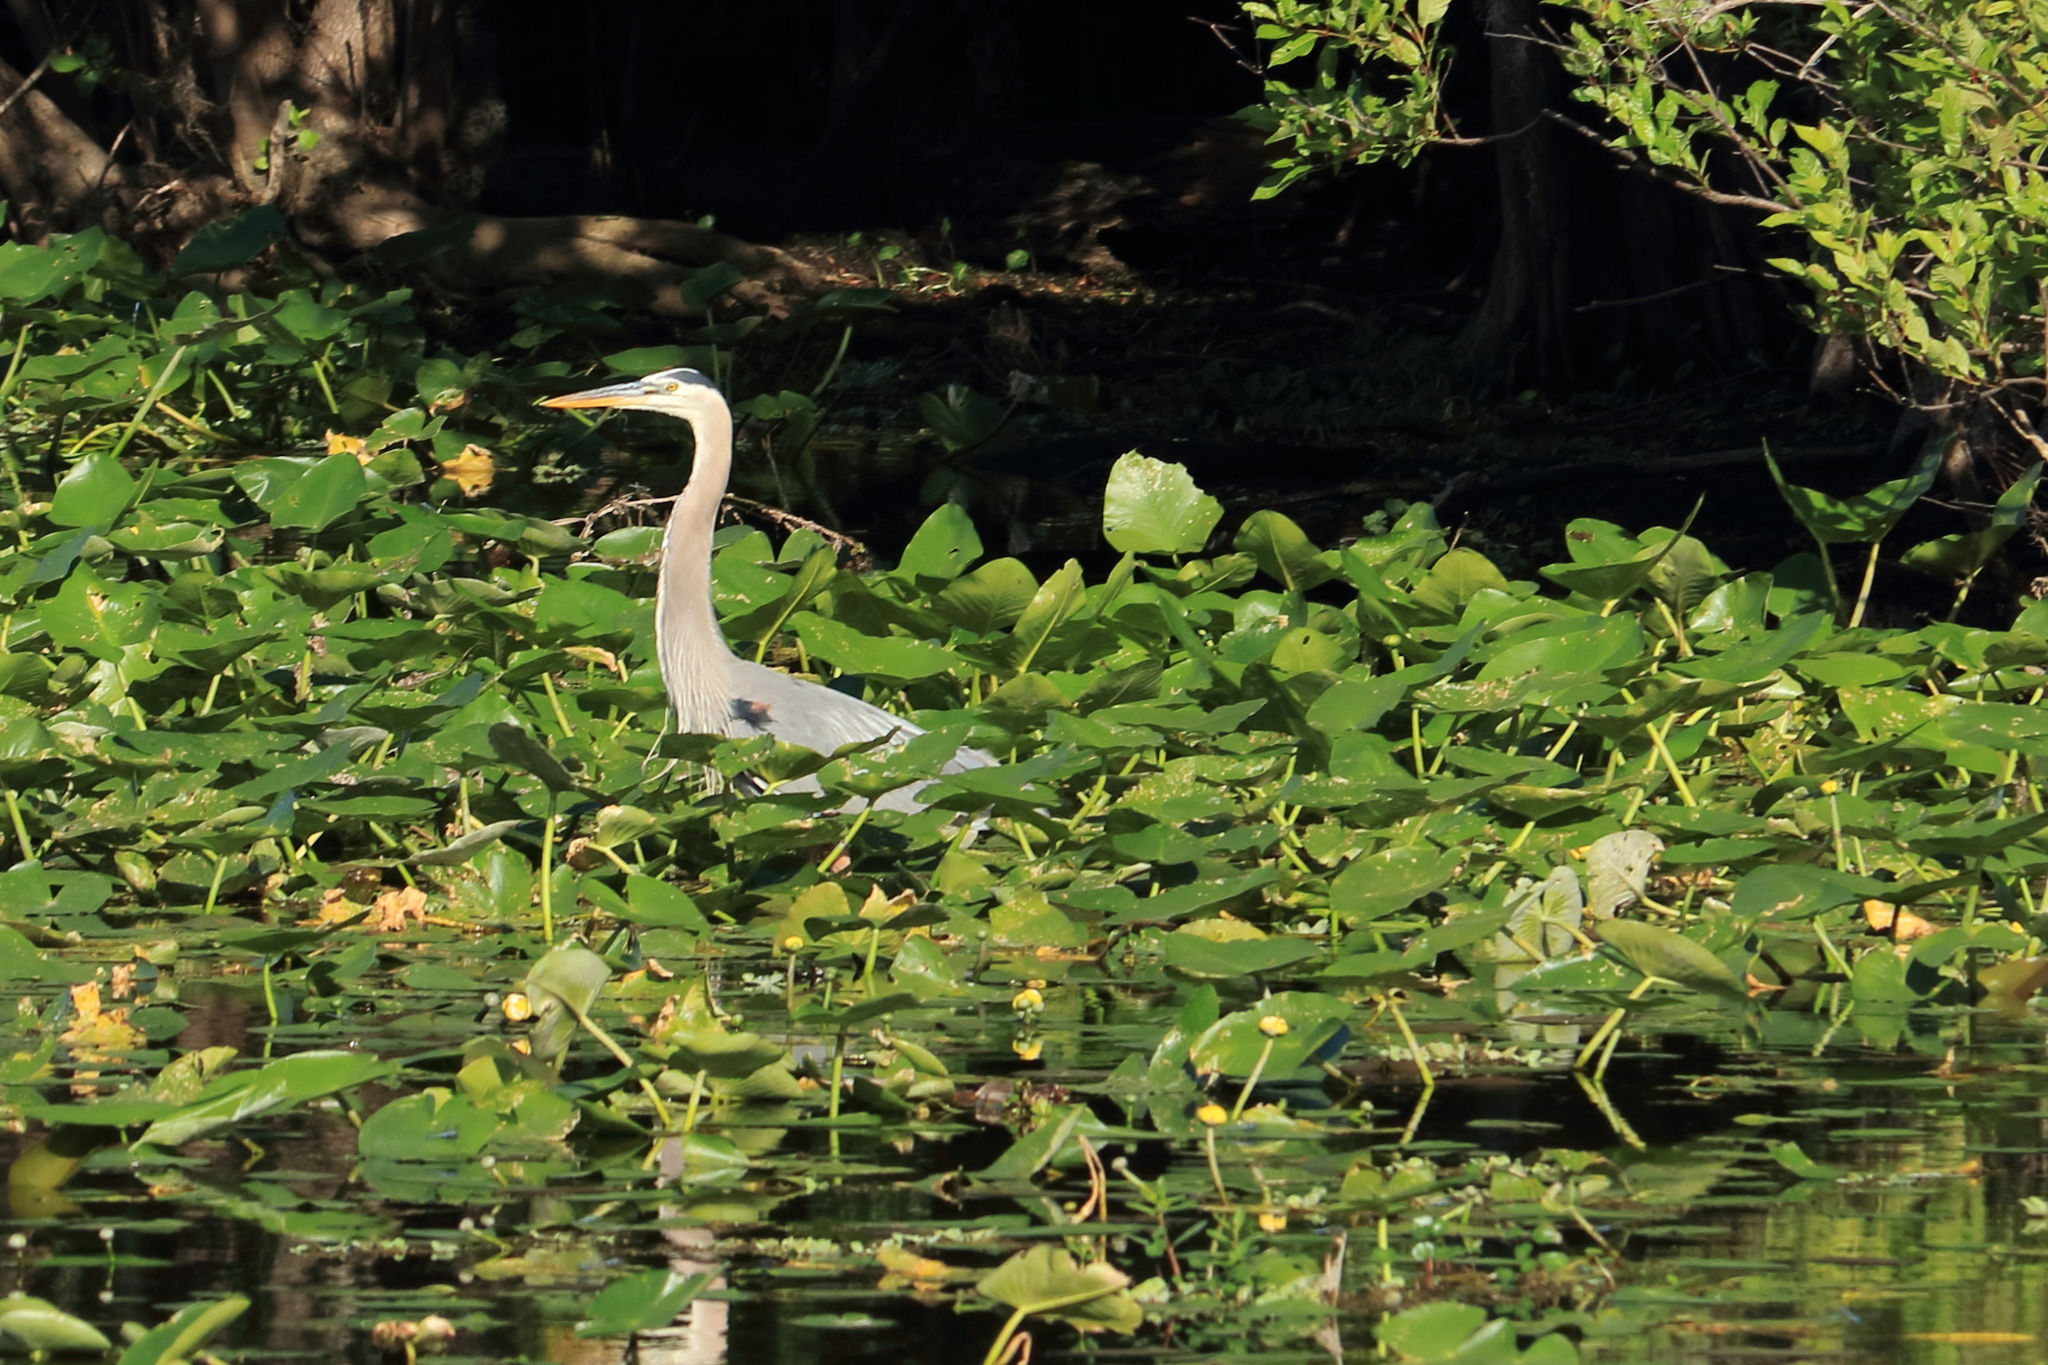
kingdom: Animalia
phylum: Chordata
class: Aves
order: Pelecaniformes
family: Ardeidae
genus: Ardea
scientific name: Ardea herodias
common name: Great blue heron
